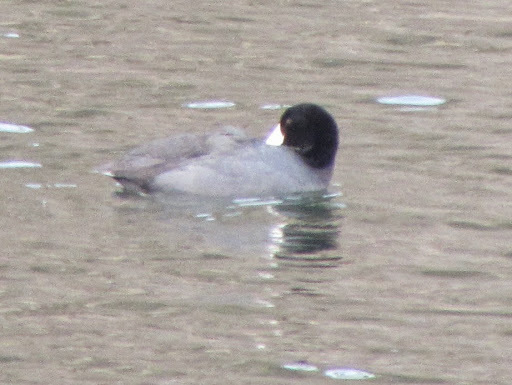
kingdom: Animalia
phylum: Chordata
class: Aves
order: Gruiformes
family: Rallidae
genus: Fulica
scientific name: Fulica americana
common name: American coot
